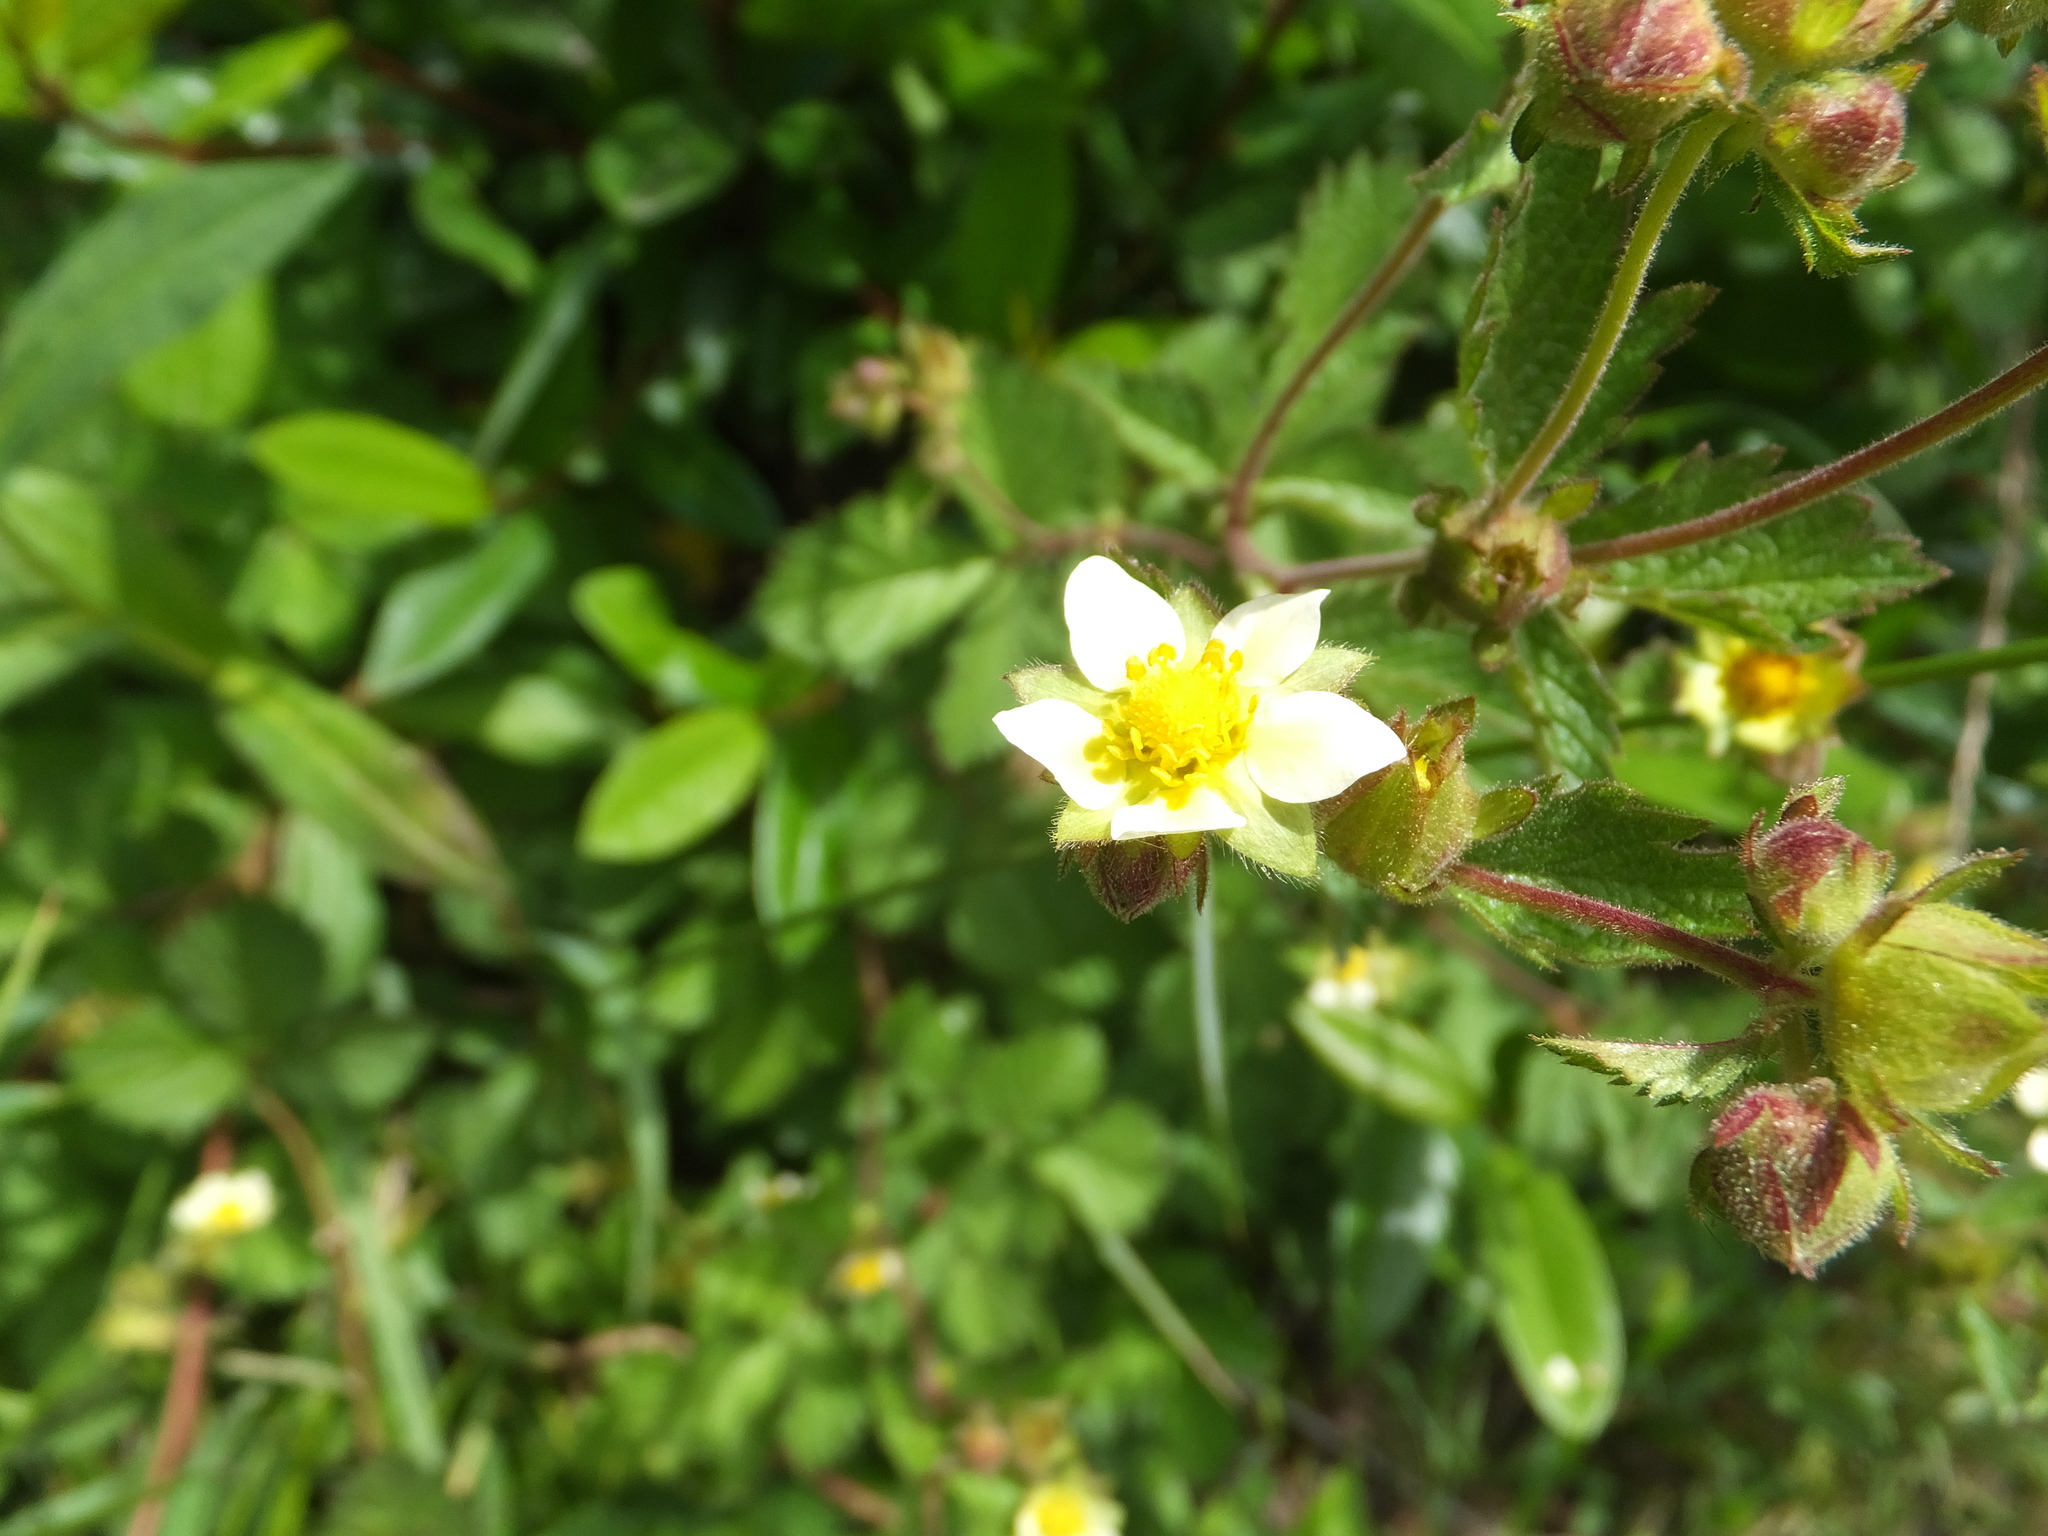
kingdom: Plantae
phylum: Tracheophyta
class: Magnoliopsida
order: Rosales
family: Rosaceae
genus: Drymocallis
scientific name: Drymocallis glandulosa
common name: Sticky cinquefoil
